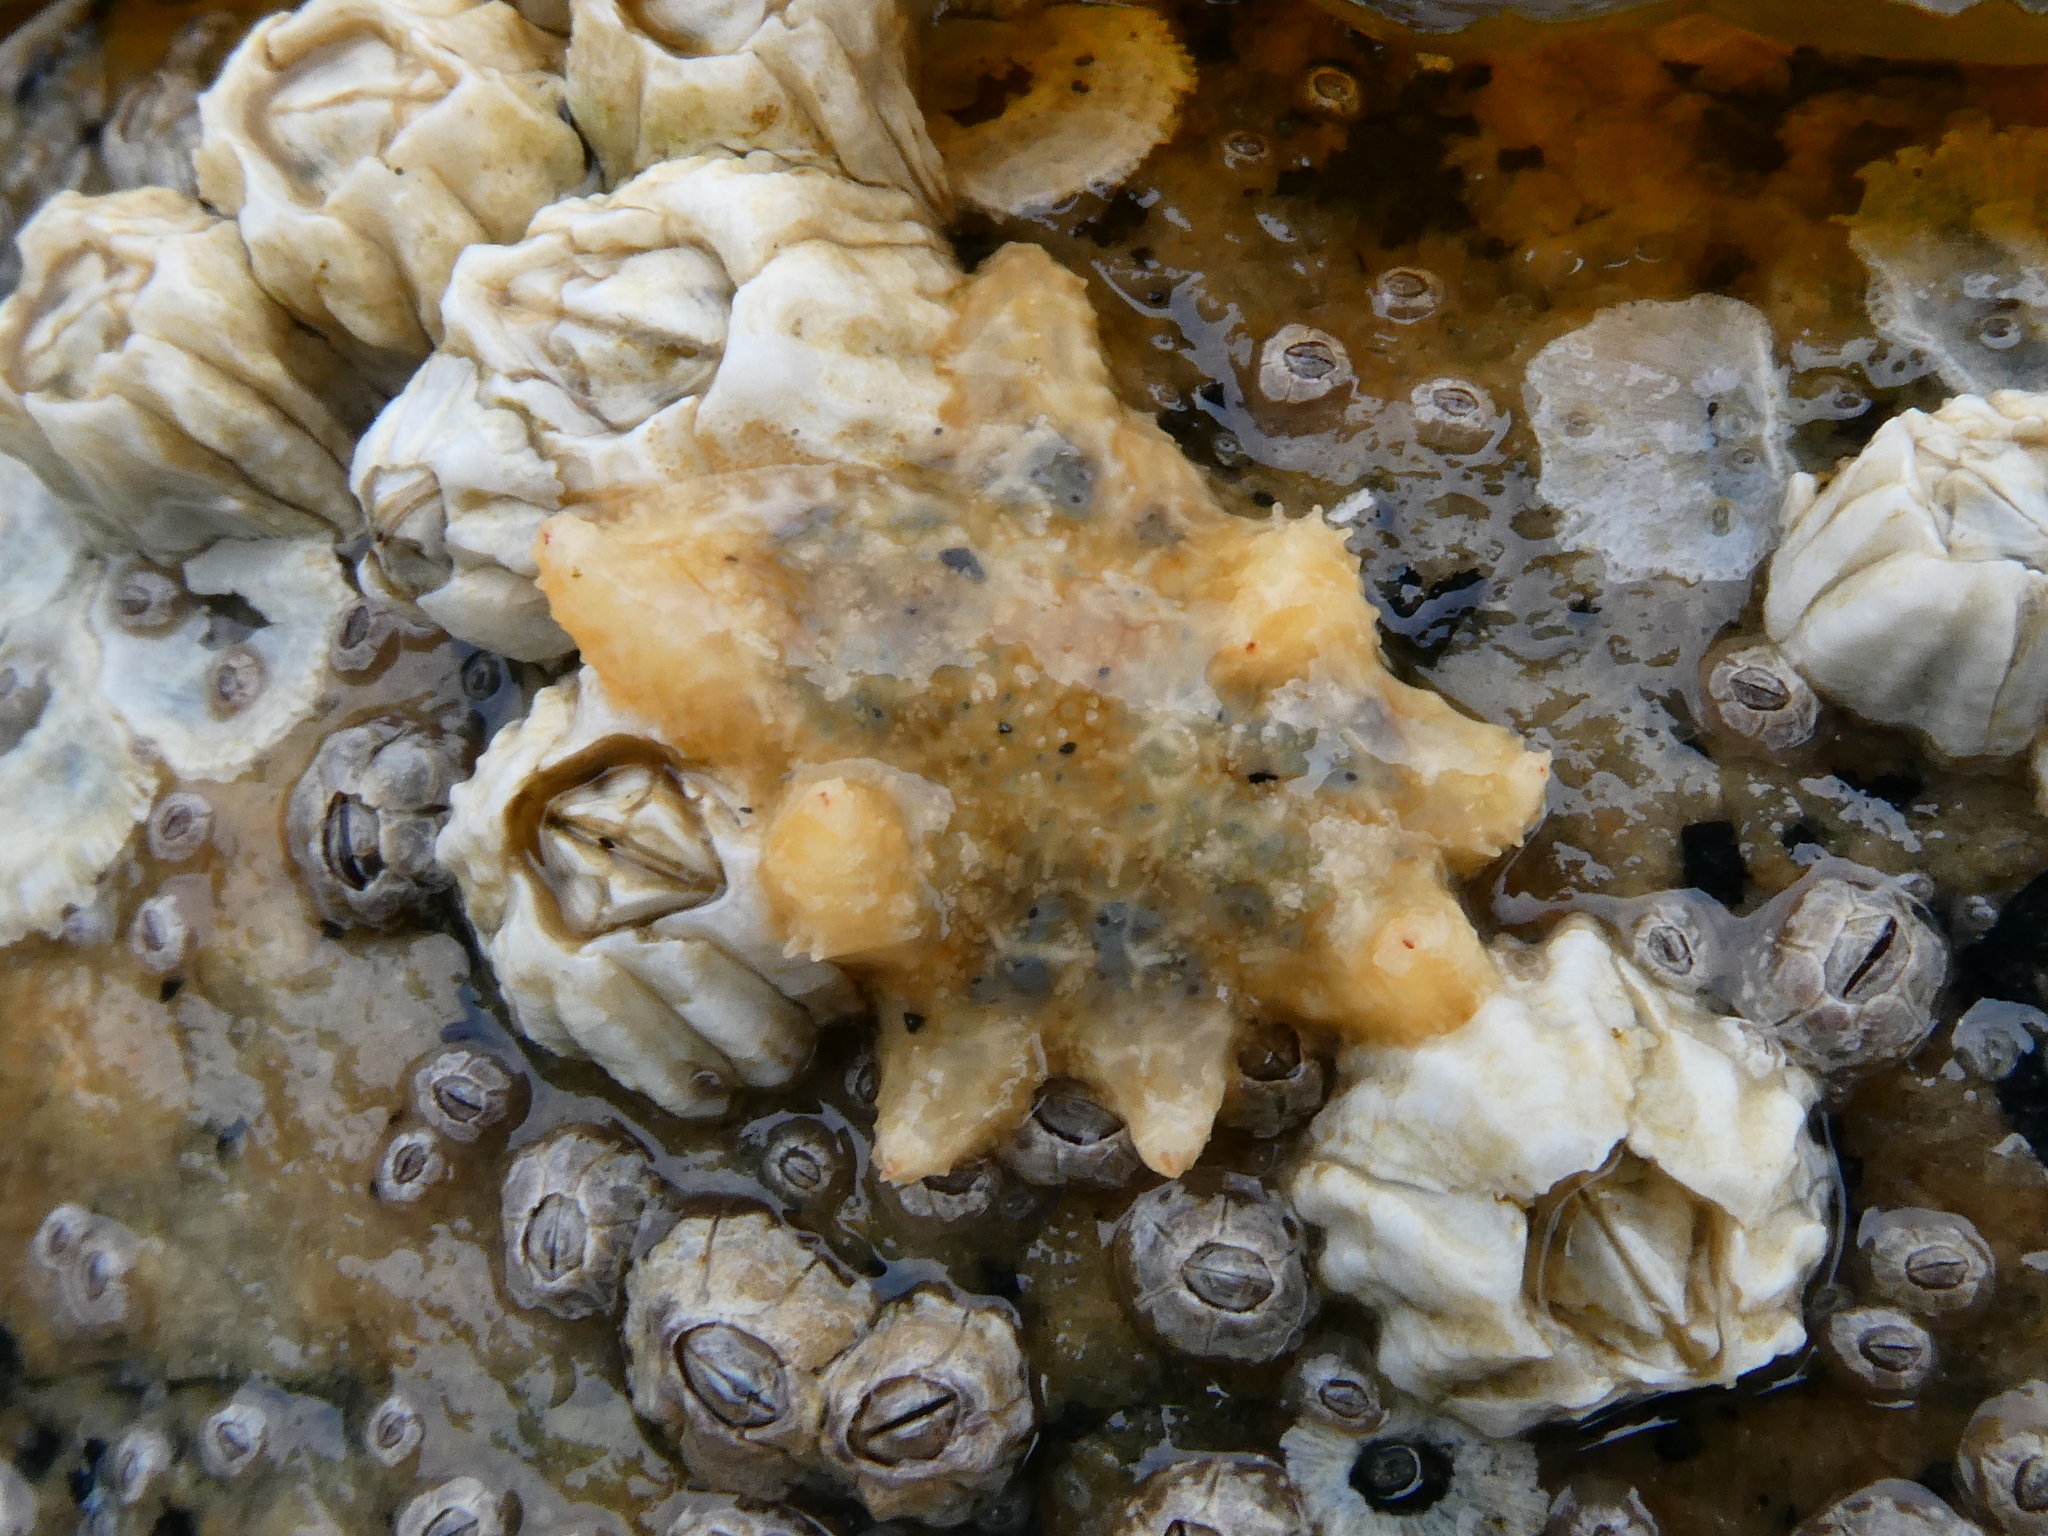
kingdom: Animalia
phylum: Echinodermata
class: Asteroidea
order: Forcipulatida
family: Asteriidae
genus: Pycnopodia
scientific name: Pycnopodia helianthoides
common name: Rag mop
